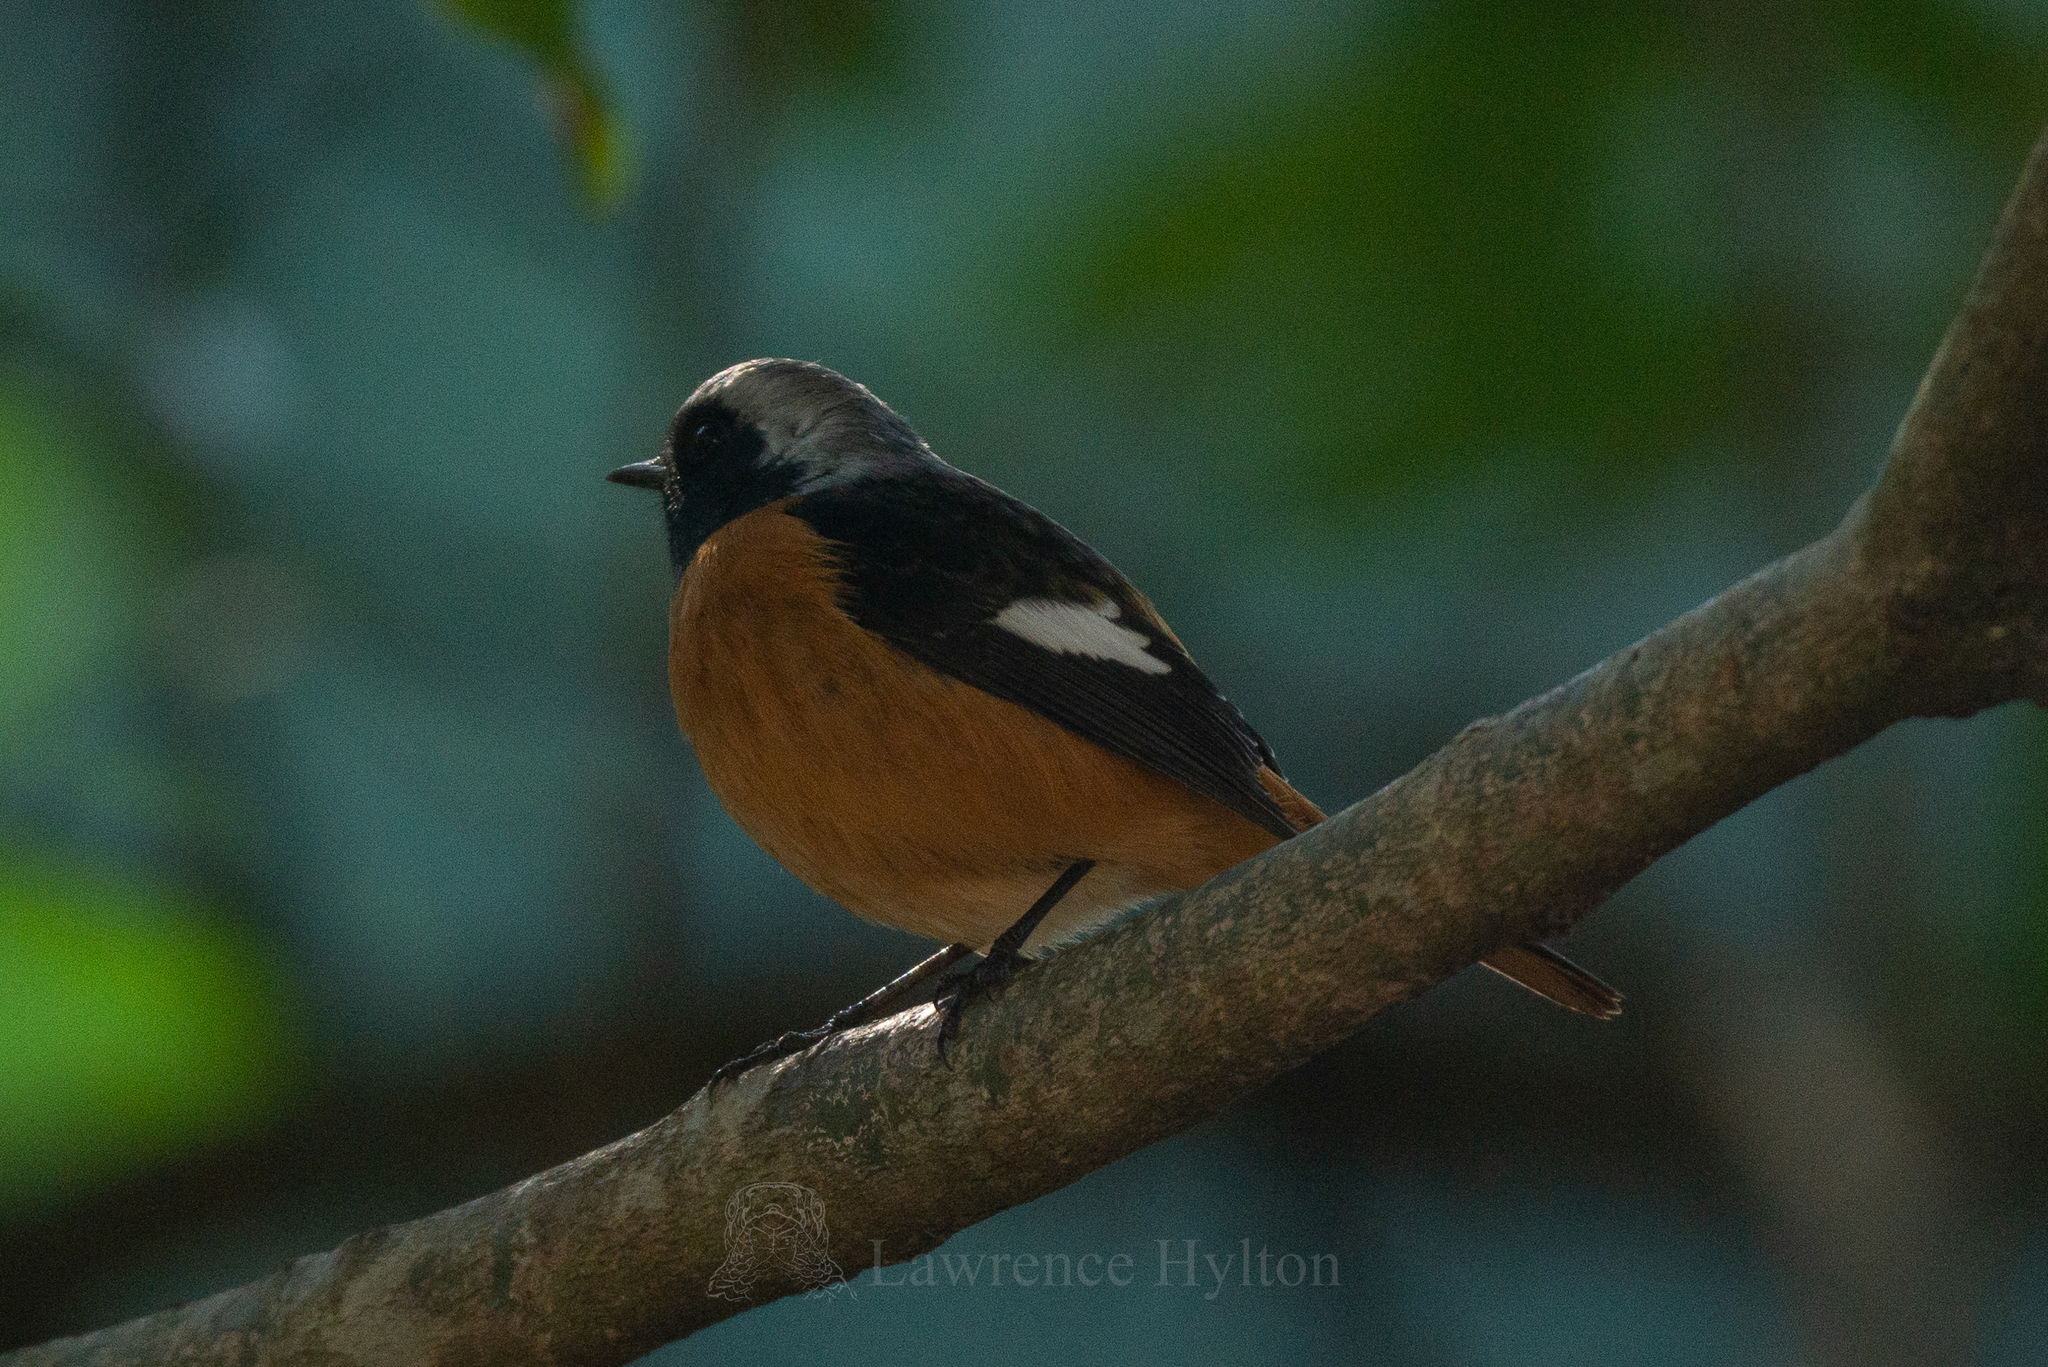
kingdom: Animalia
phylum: Chordata
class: Aves
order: Passeriformes
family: Muscicapidae
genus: Phoenicurus
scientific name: Phoenicurus auroreus
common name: Daurian redstart
